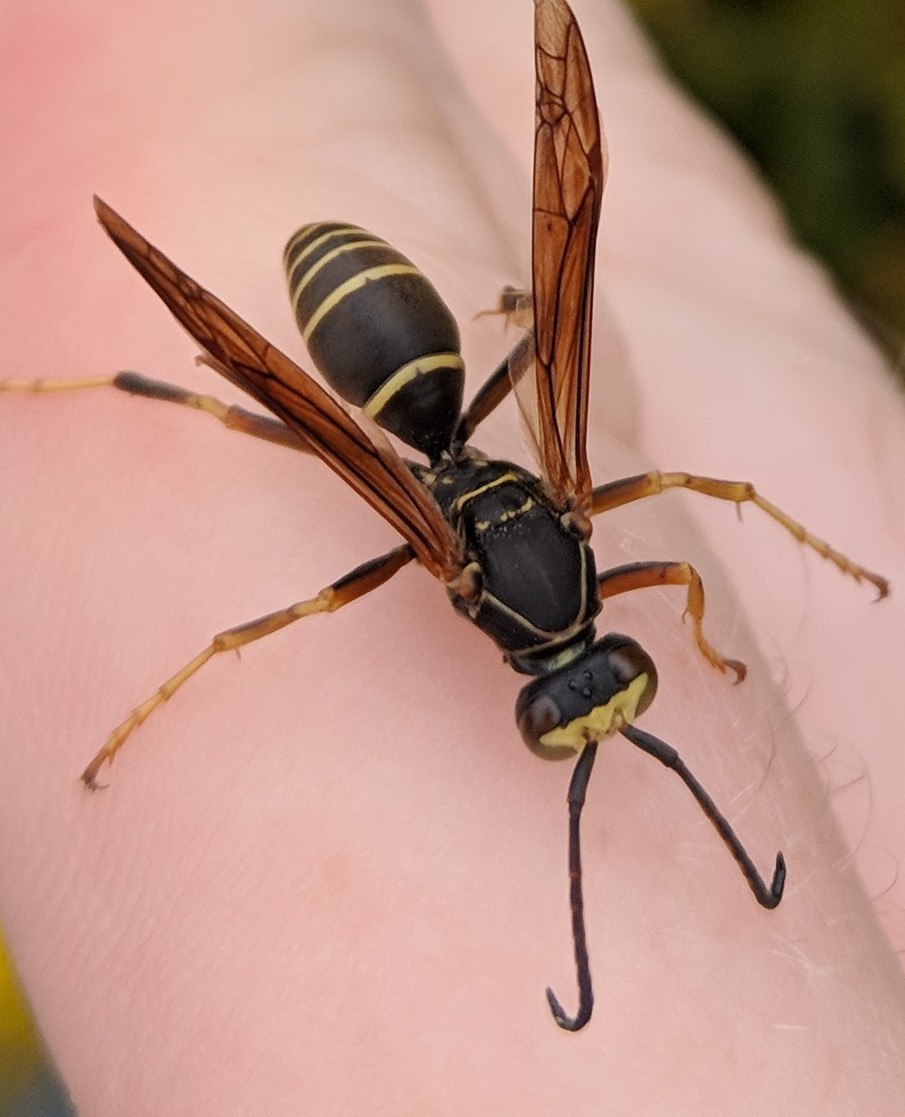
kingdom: Animalia
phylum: Arthropoda
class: Insecta
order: Hymenoptera
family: Eumenidae
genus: Polistes
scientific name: Polistes fuscatus
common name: Dark paper wasp
